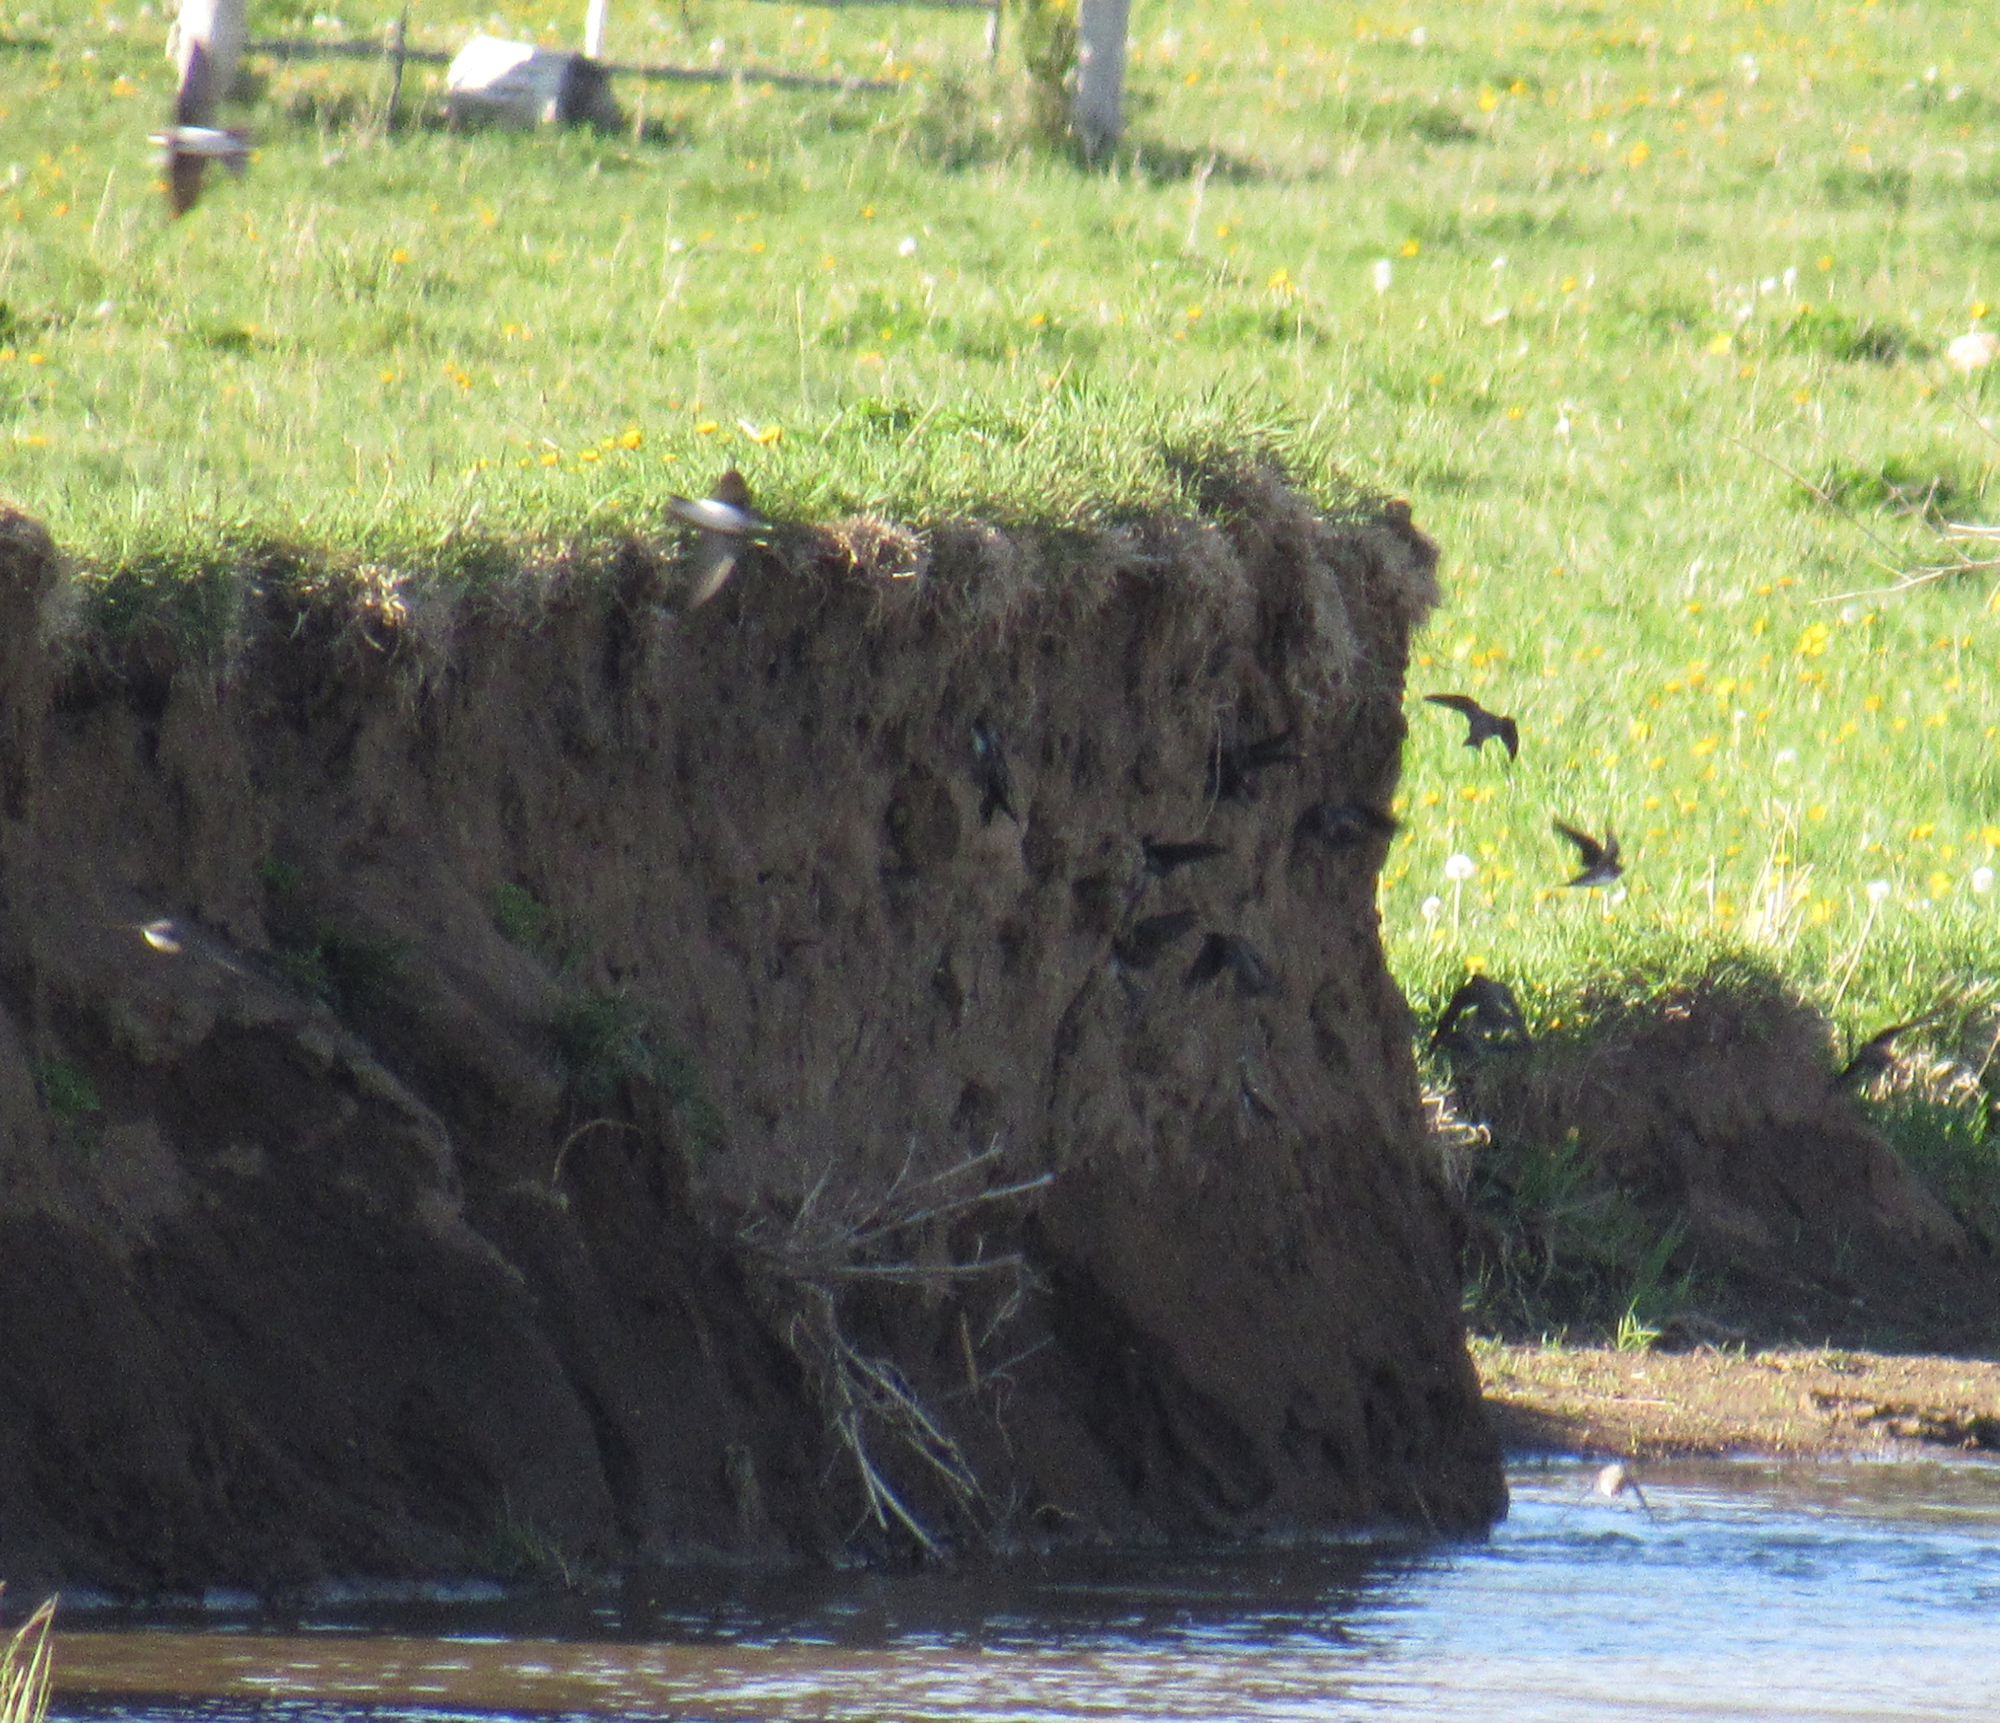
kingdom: Animalia
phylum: Chordata
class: Aves
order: Passeriformes
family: Hirundinidae
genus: Riparia
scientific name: Riparia riparia
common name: Sand martin
